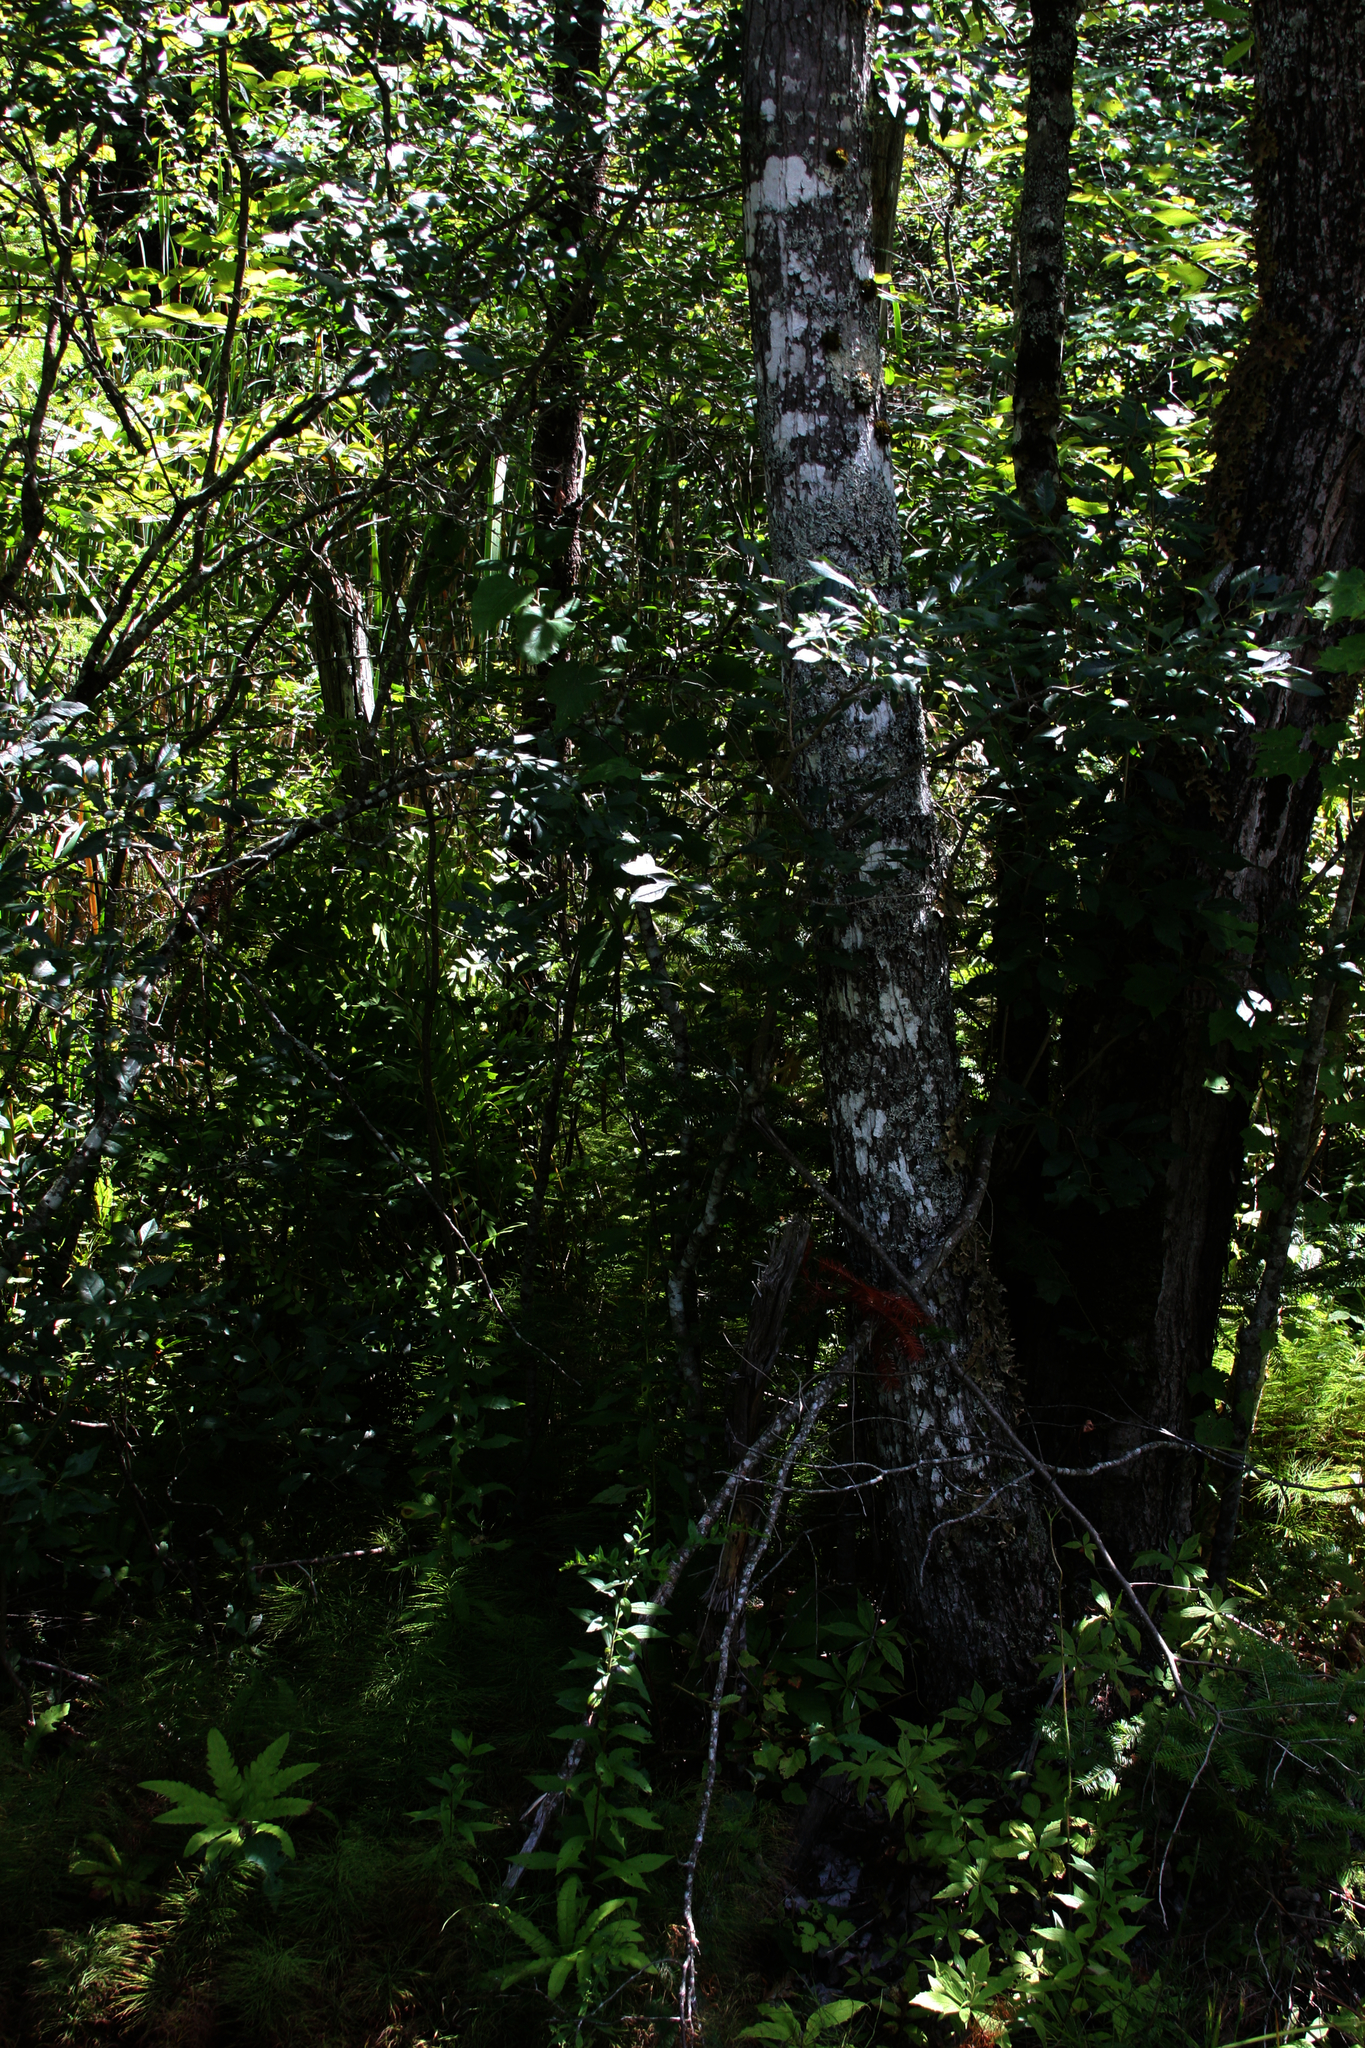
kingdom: Plantae
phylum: Tracheophyta
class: Magnoliopsida
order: Sapindales
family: Sapindaceae
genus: Acer
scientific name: Acer rubrum
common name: Red maple
